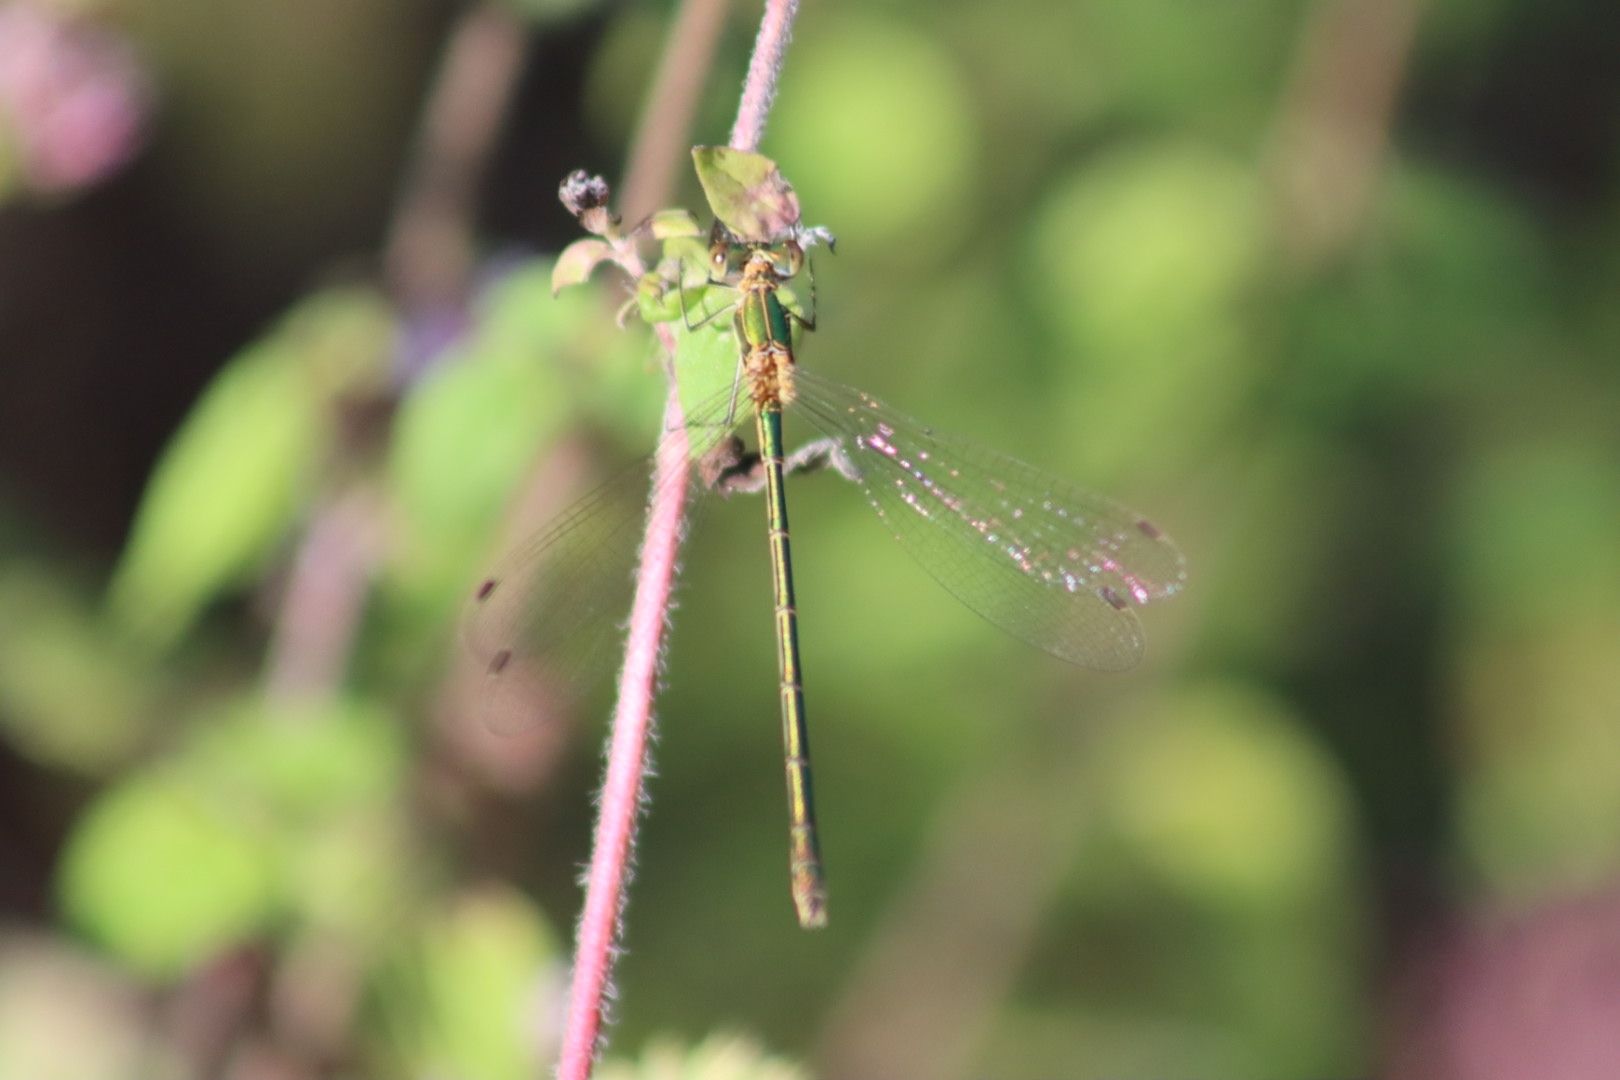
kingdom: Animalia
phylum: Arthropoda
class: Insecta
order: Odonata
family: Lestidae
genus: Lestes
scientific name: Lestes sponsa
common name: Common spreadwing
